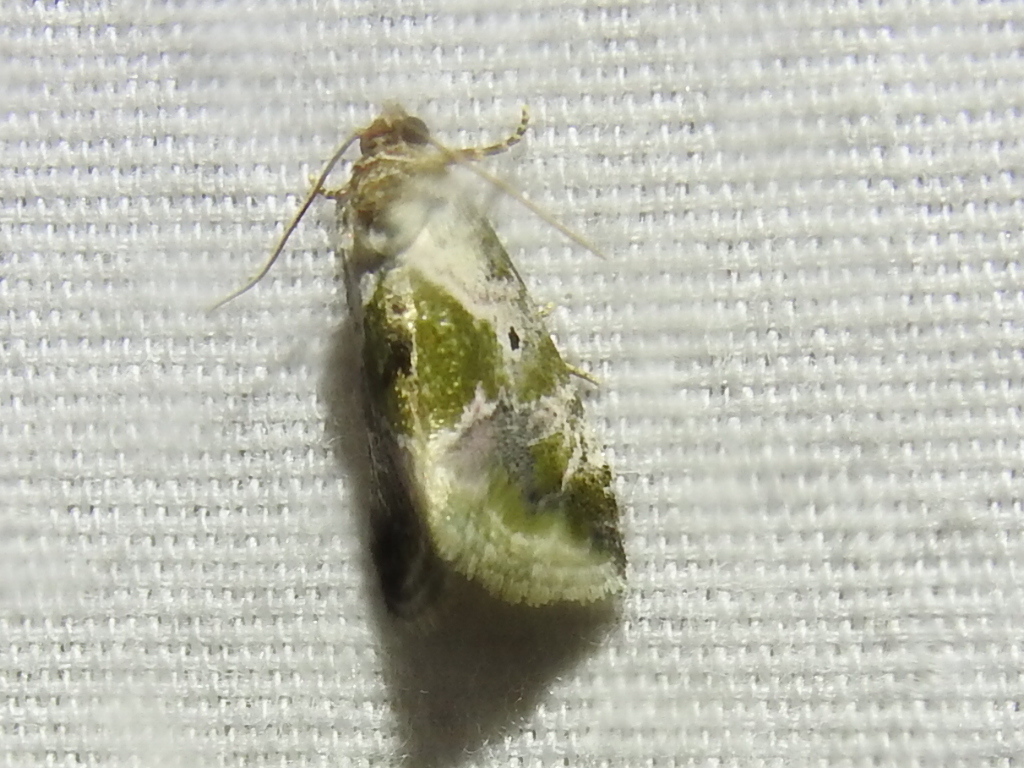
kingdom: Animalia
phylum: Arthropoda
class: Insecta
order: Lepidoptera
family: Noctuidae
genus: Maliattha
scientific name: Maliattha synochitis
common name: Black-dotted glyph
